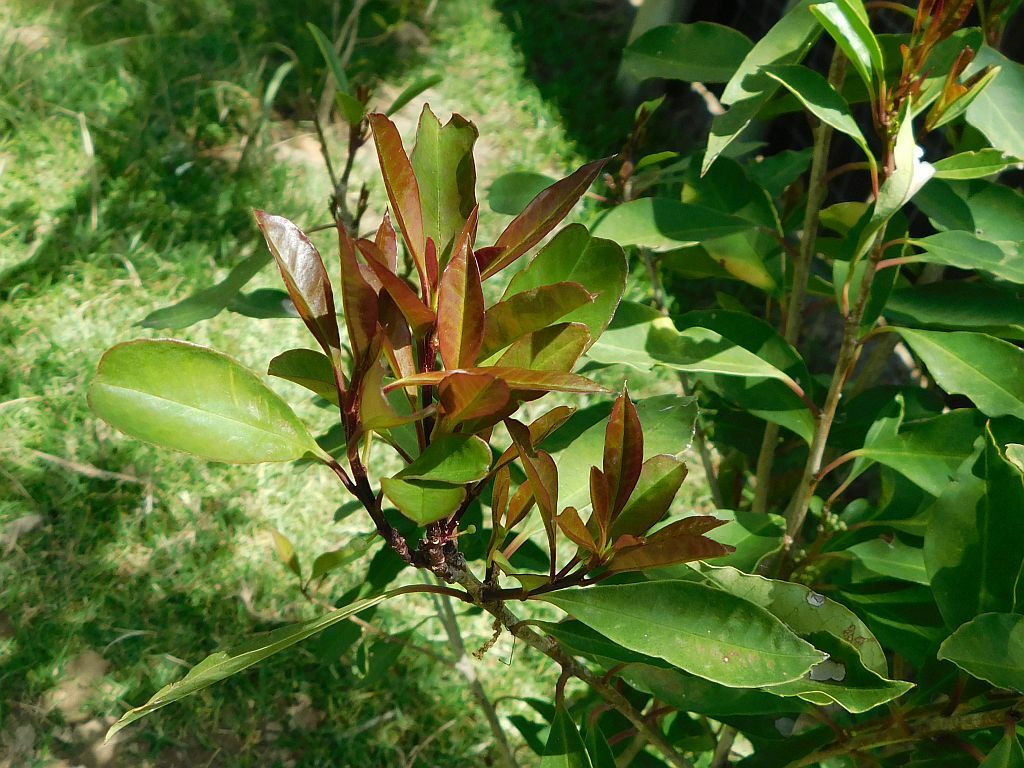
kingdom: Plantae
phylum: Tracheophyta
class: Magnoliopsida
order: Aquifoliales
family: Aquifoliaceae
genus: Ilex
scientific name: Ilex mitis
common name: African holly
